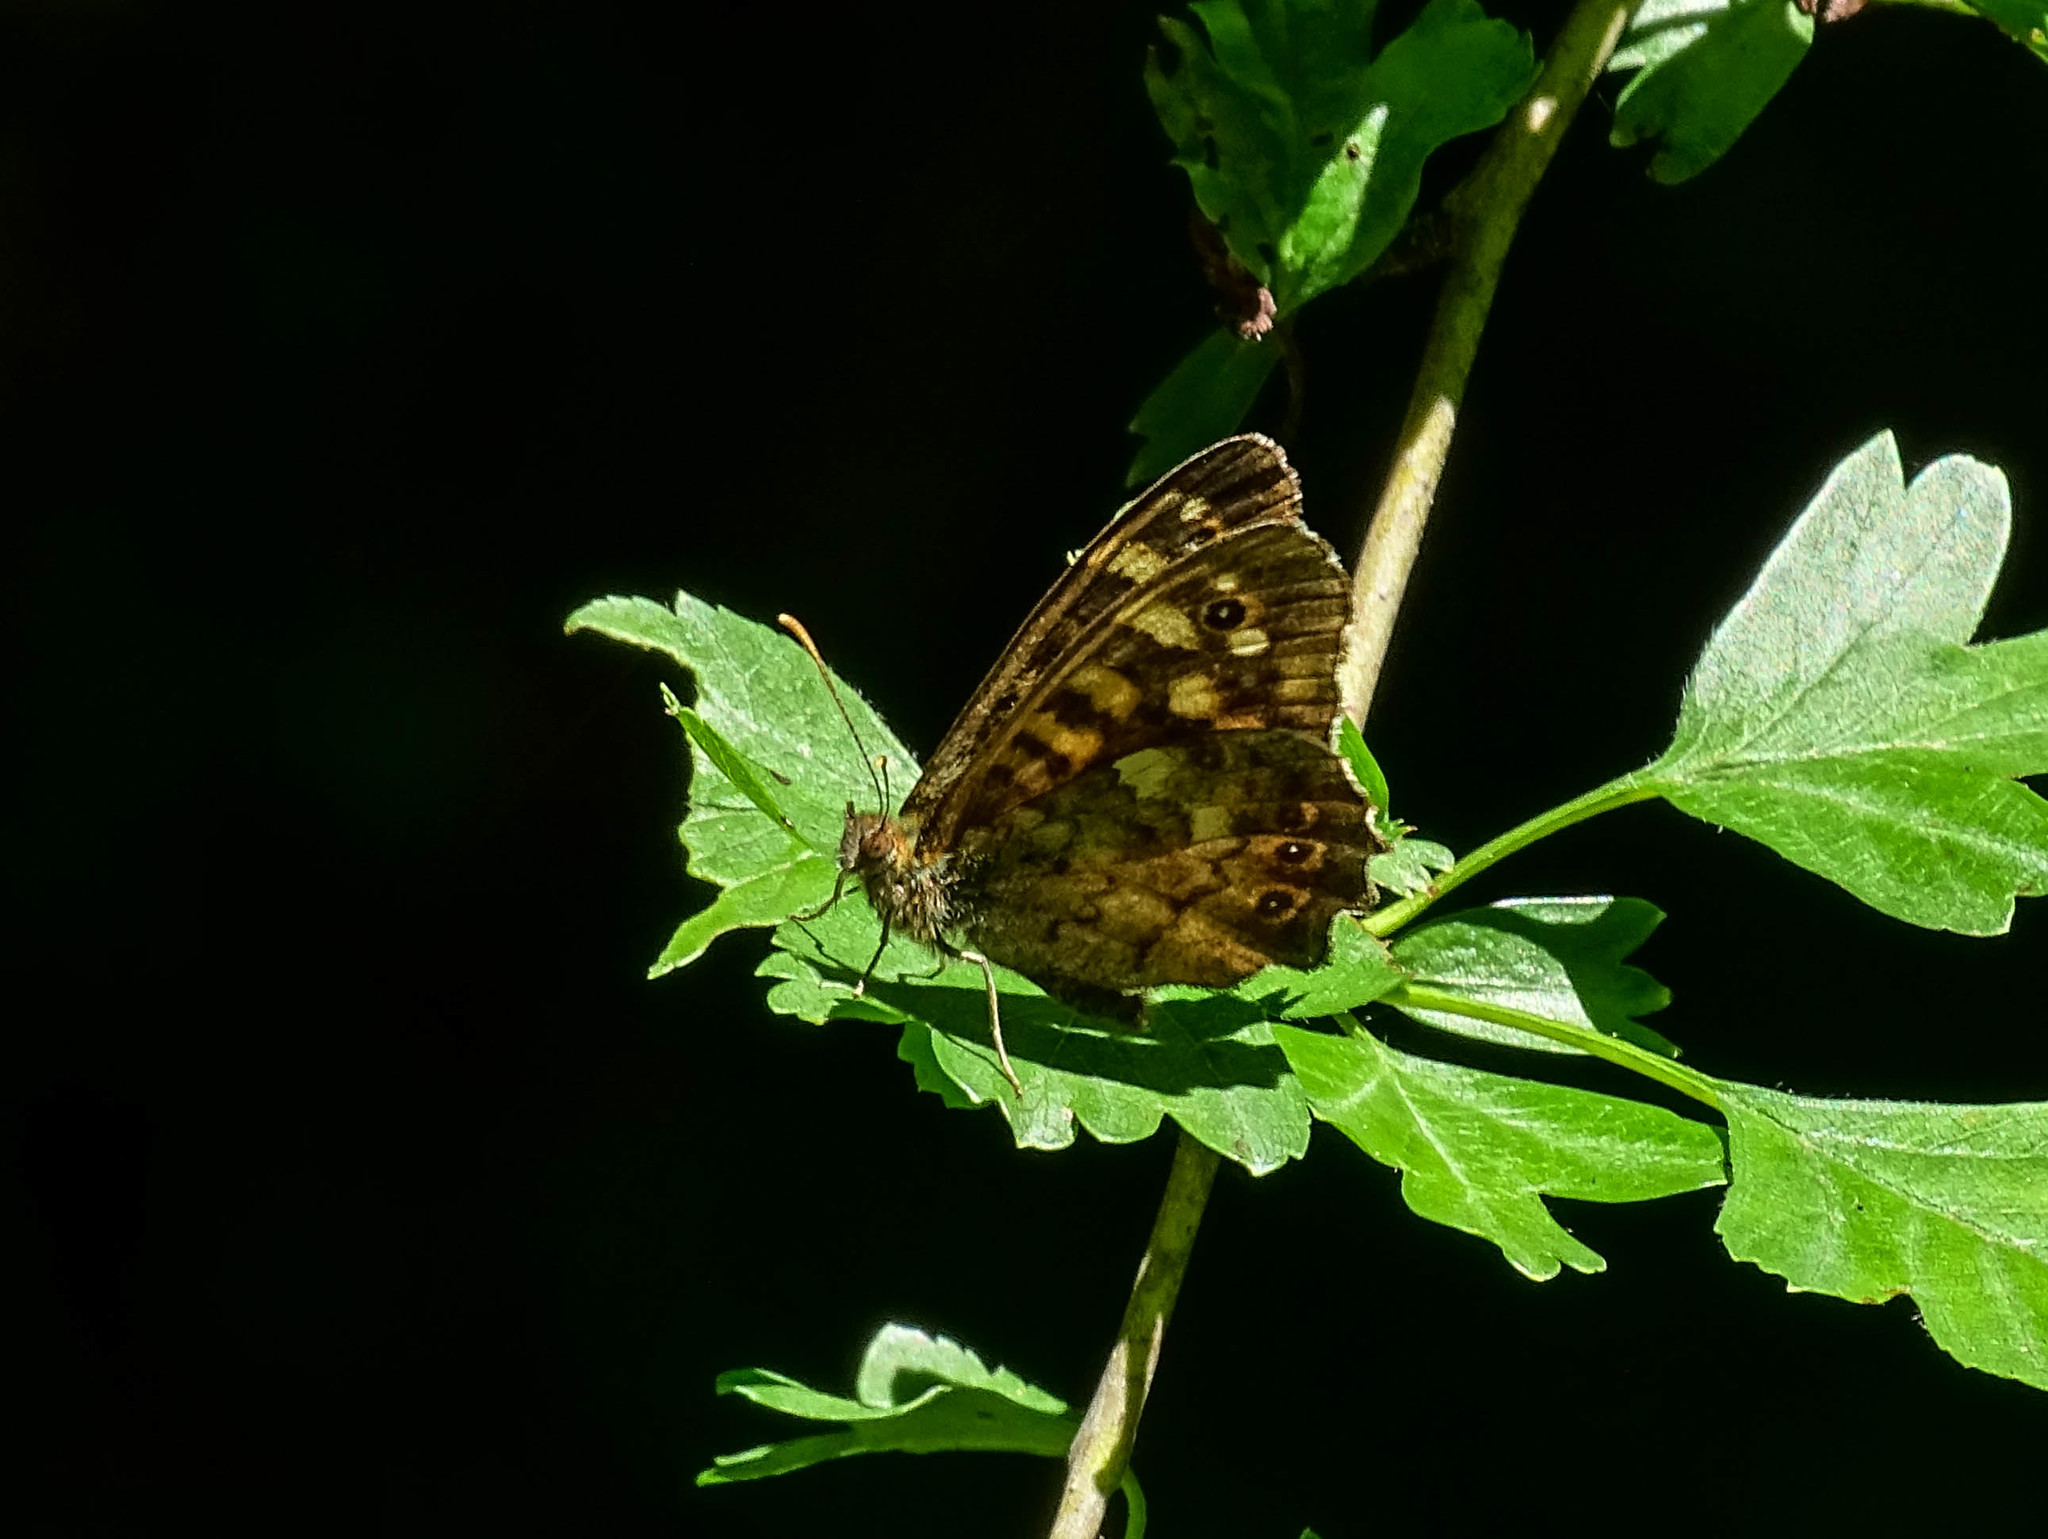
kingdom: Animalia
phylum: Arthropoda
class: Insecta
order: Lepidoptera
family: Nymphalidae
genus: Pararge
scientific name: Pararge aegeria
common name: Speckled wood
